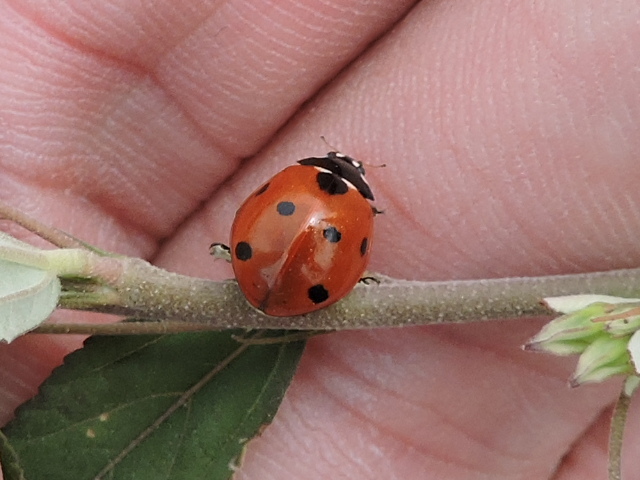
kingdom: Animalia
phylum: Arthropoda
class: Insecta
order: Coleoptera
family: Coccinellidae
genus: Coccinella
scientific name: Coccinella septempunctata
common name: Sevenspotted lady beetle
